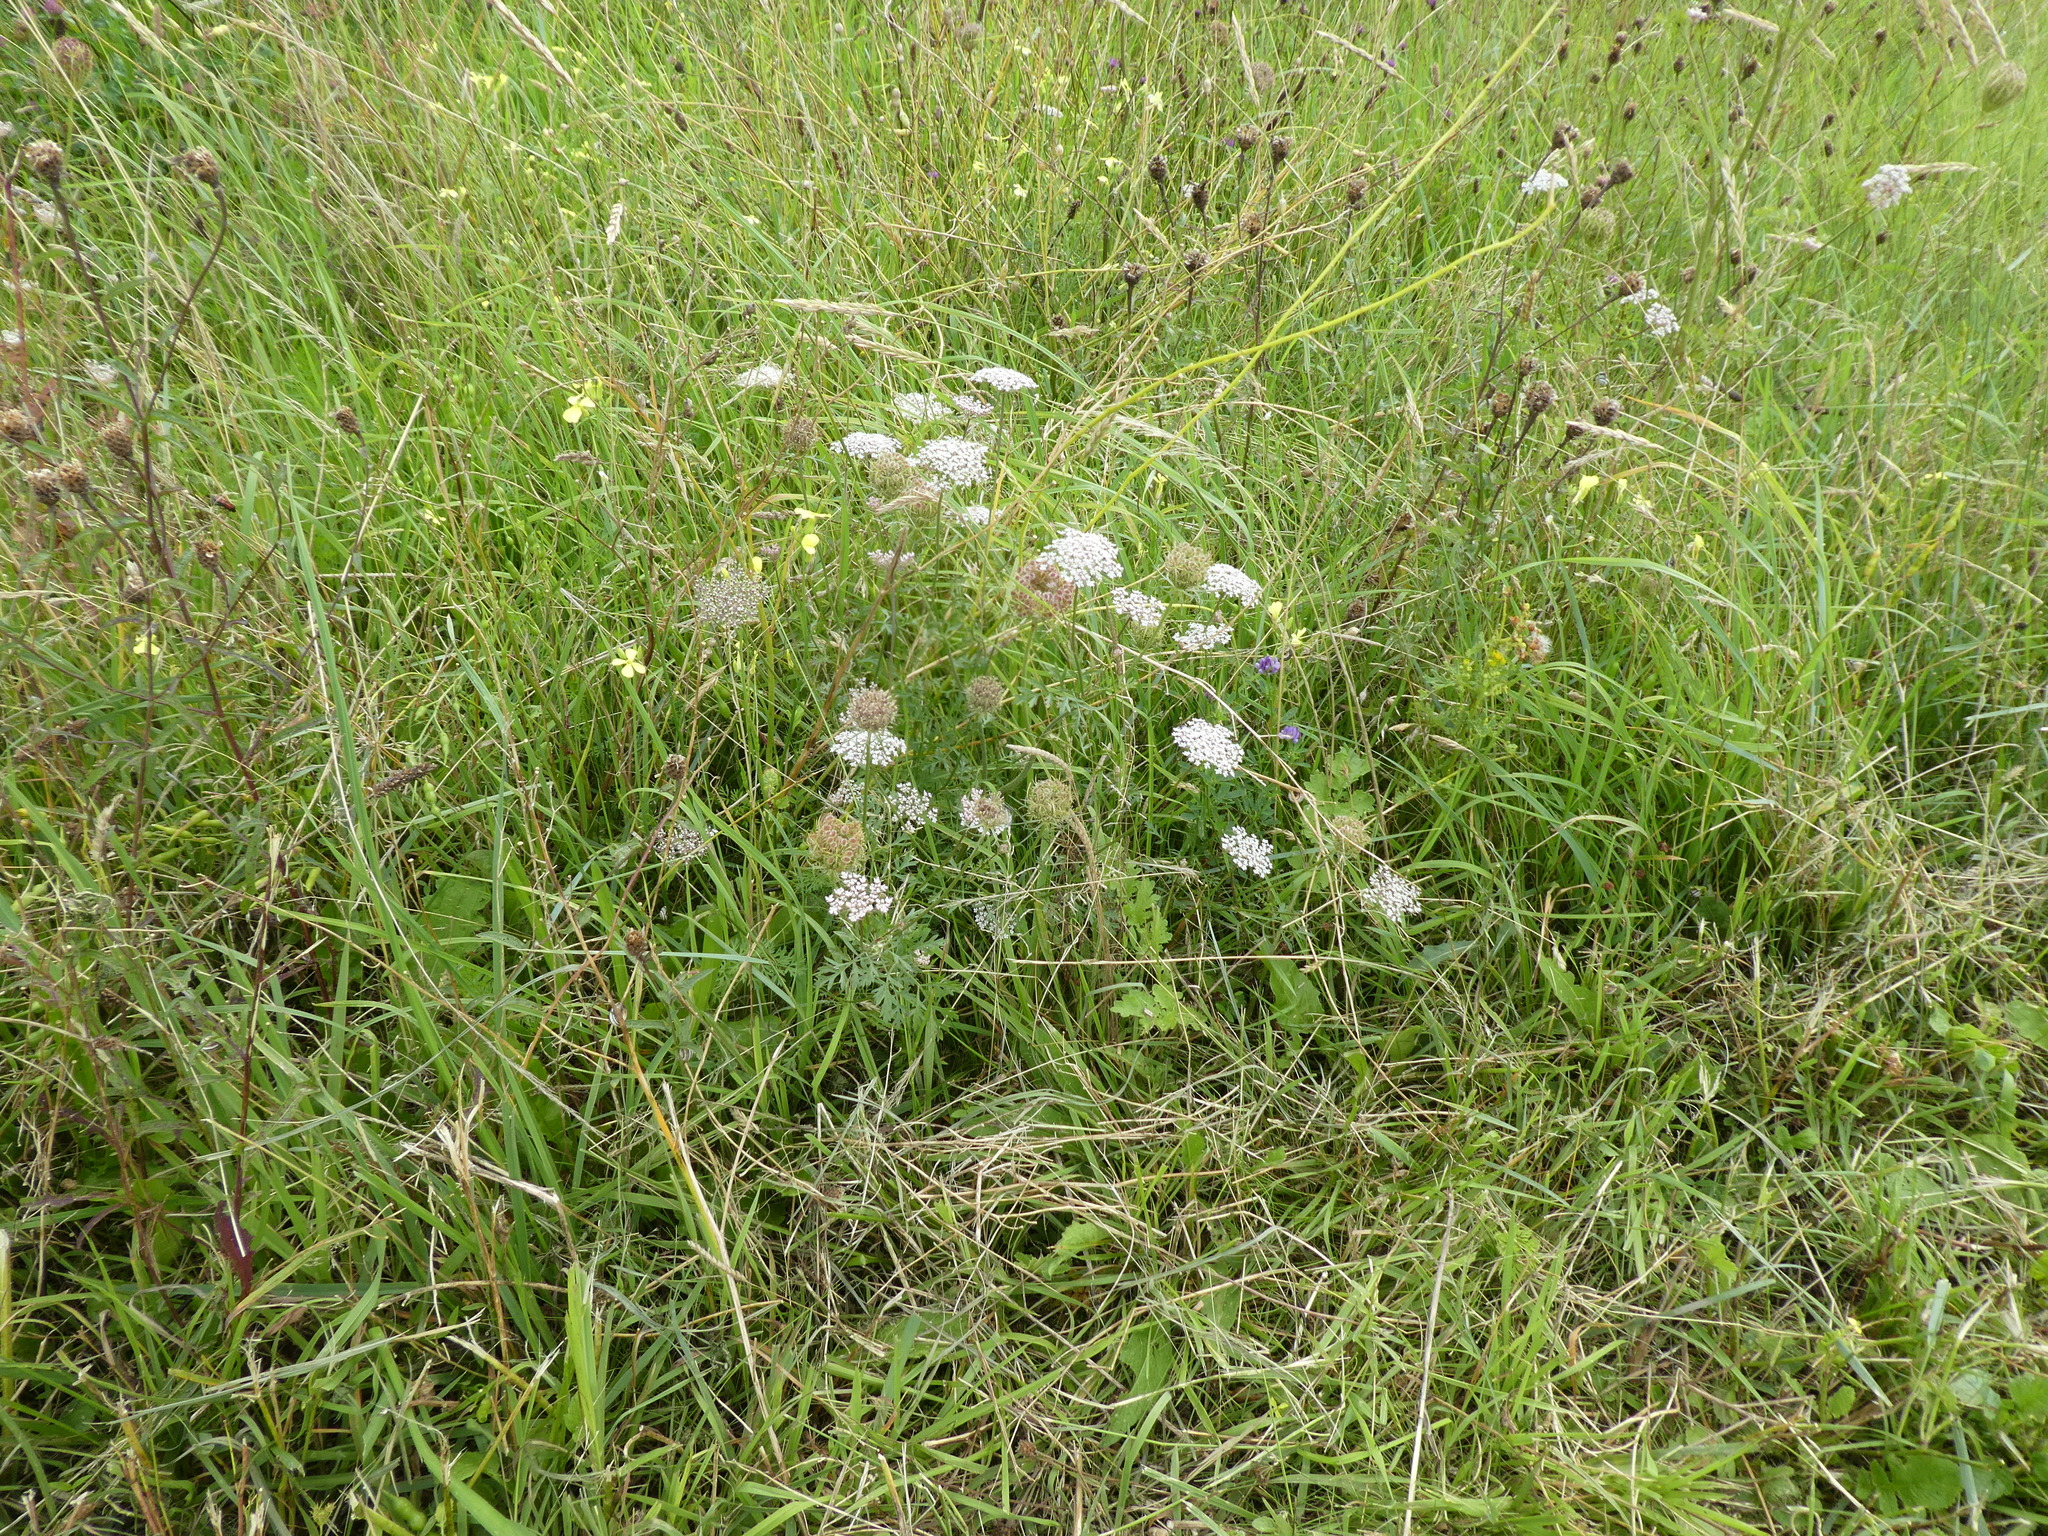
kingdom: Plantae
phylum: Tracheophyta
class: Magnoliopsida
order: Apiales
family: Apiaceae
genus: Daucus
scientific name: Daucus carota
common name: Wild carrot
